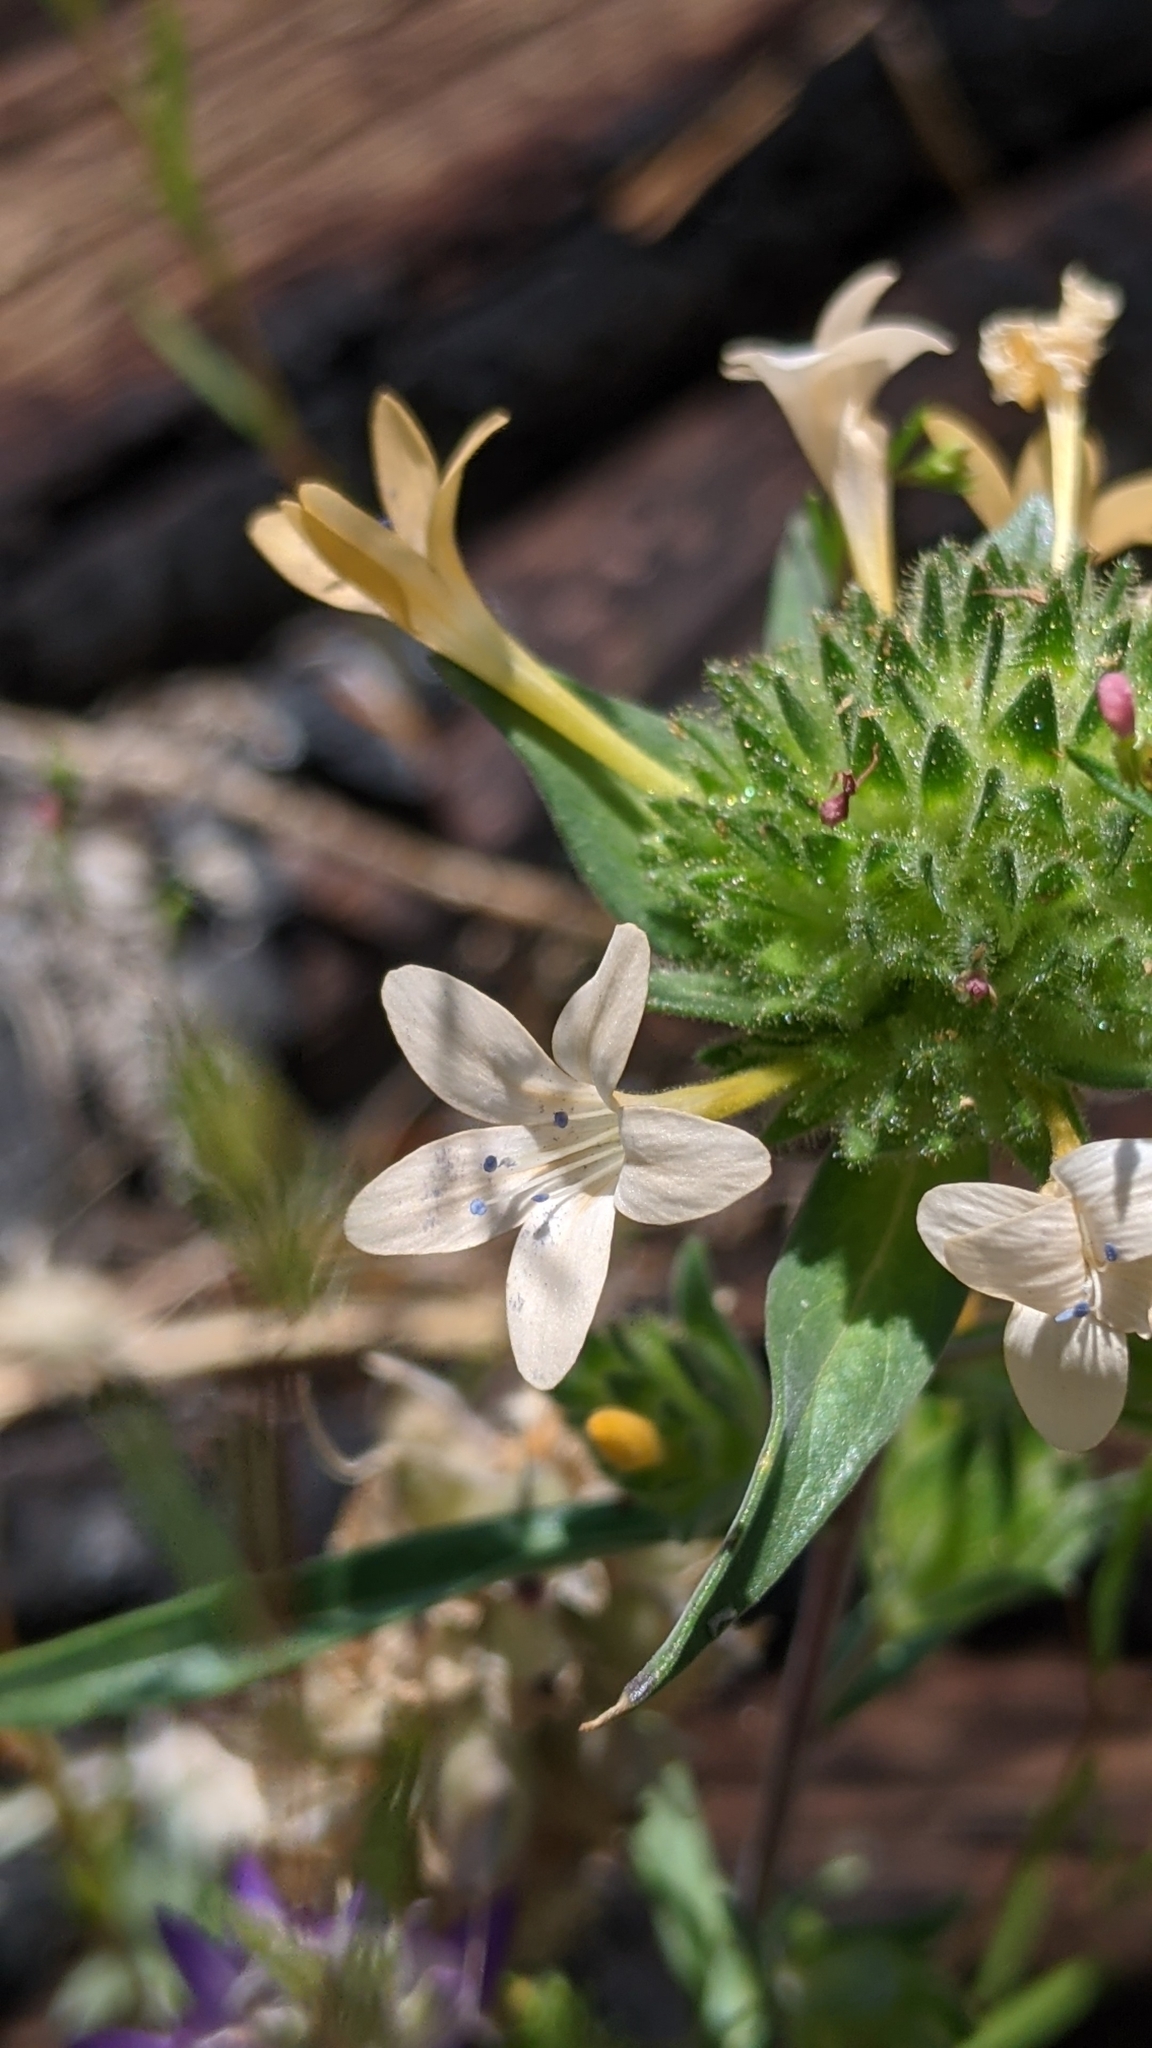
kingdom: Plantae
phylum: Tracheophyta
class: Magnoliopsida
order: Ericales
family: Polemoniaceae
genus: Collomia
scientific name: Collomia grandiflora
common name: California strawflower
